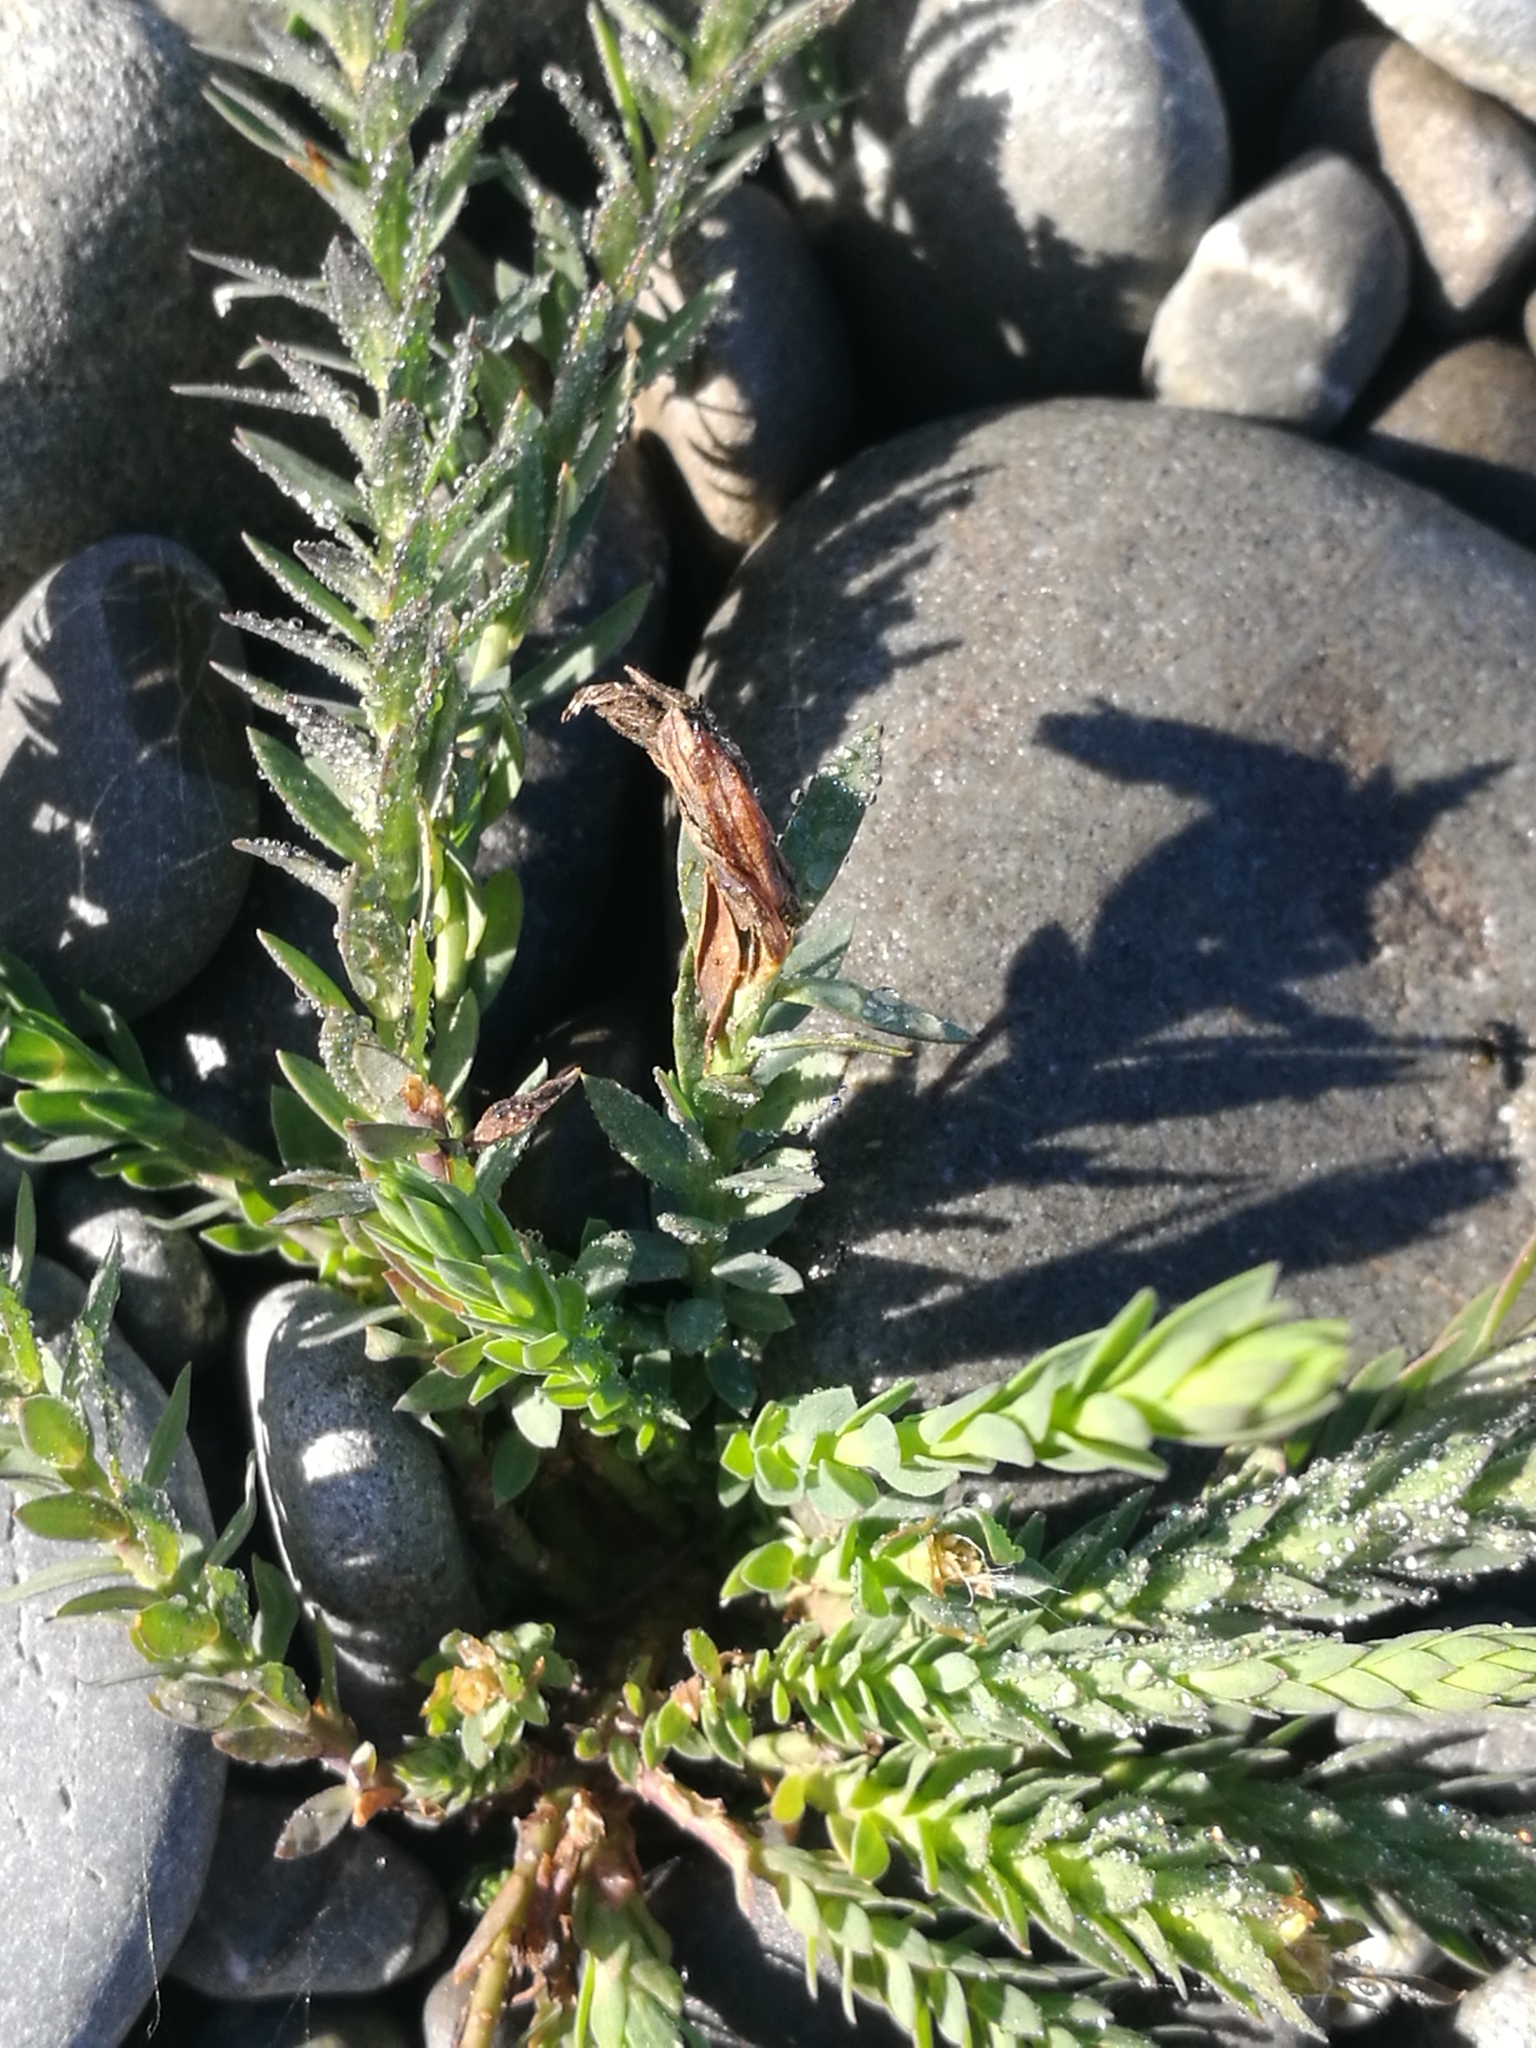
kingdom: Plantae
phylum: Tracheophyta
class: Magnoliopsida
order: Lamiales
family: Plantaginaceae
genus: Linaria
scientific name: Linaria purpurea
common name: Purple toadflax
